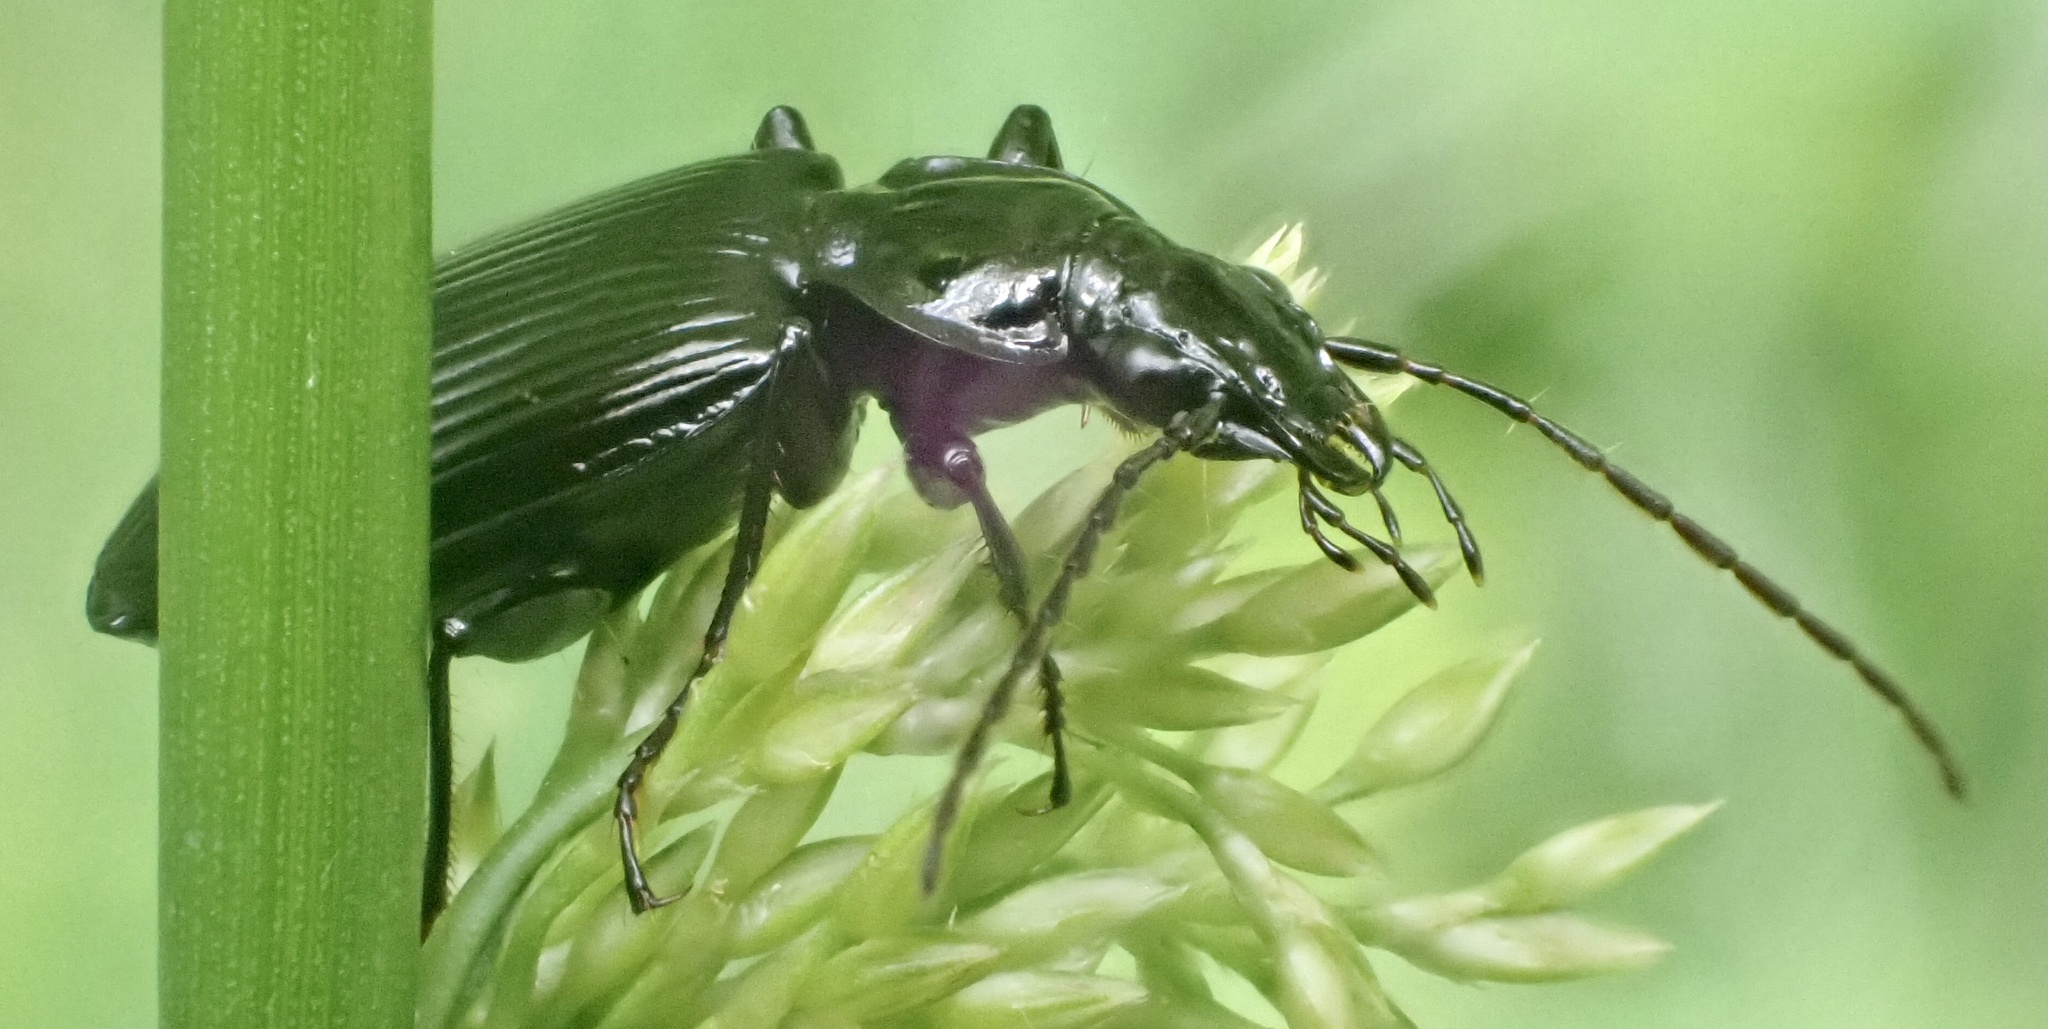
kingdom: Animalia
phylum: Arthropoda
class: Insecta
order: Coleoptera
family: Carabidae
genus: Platynus
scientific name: Platynus assimilis
